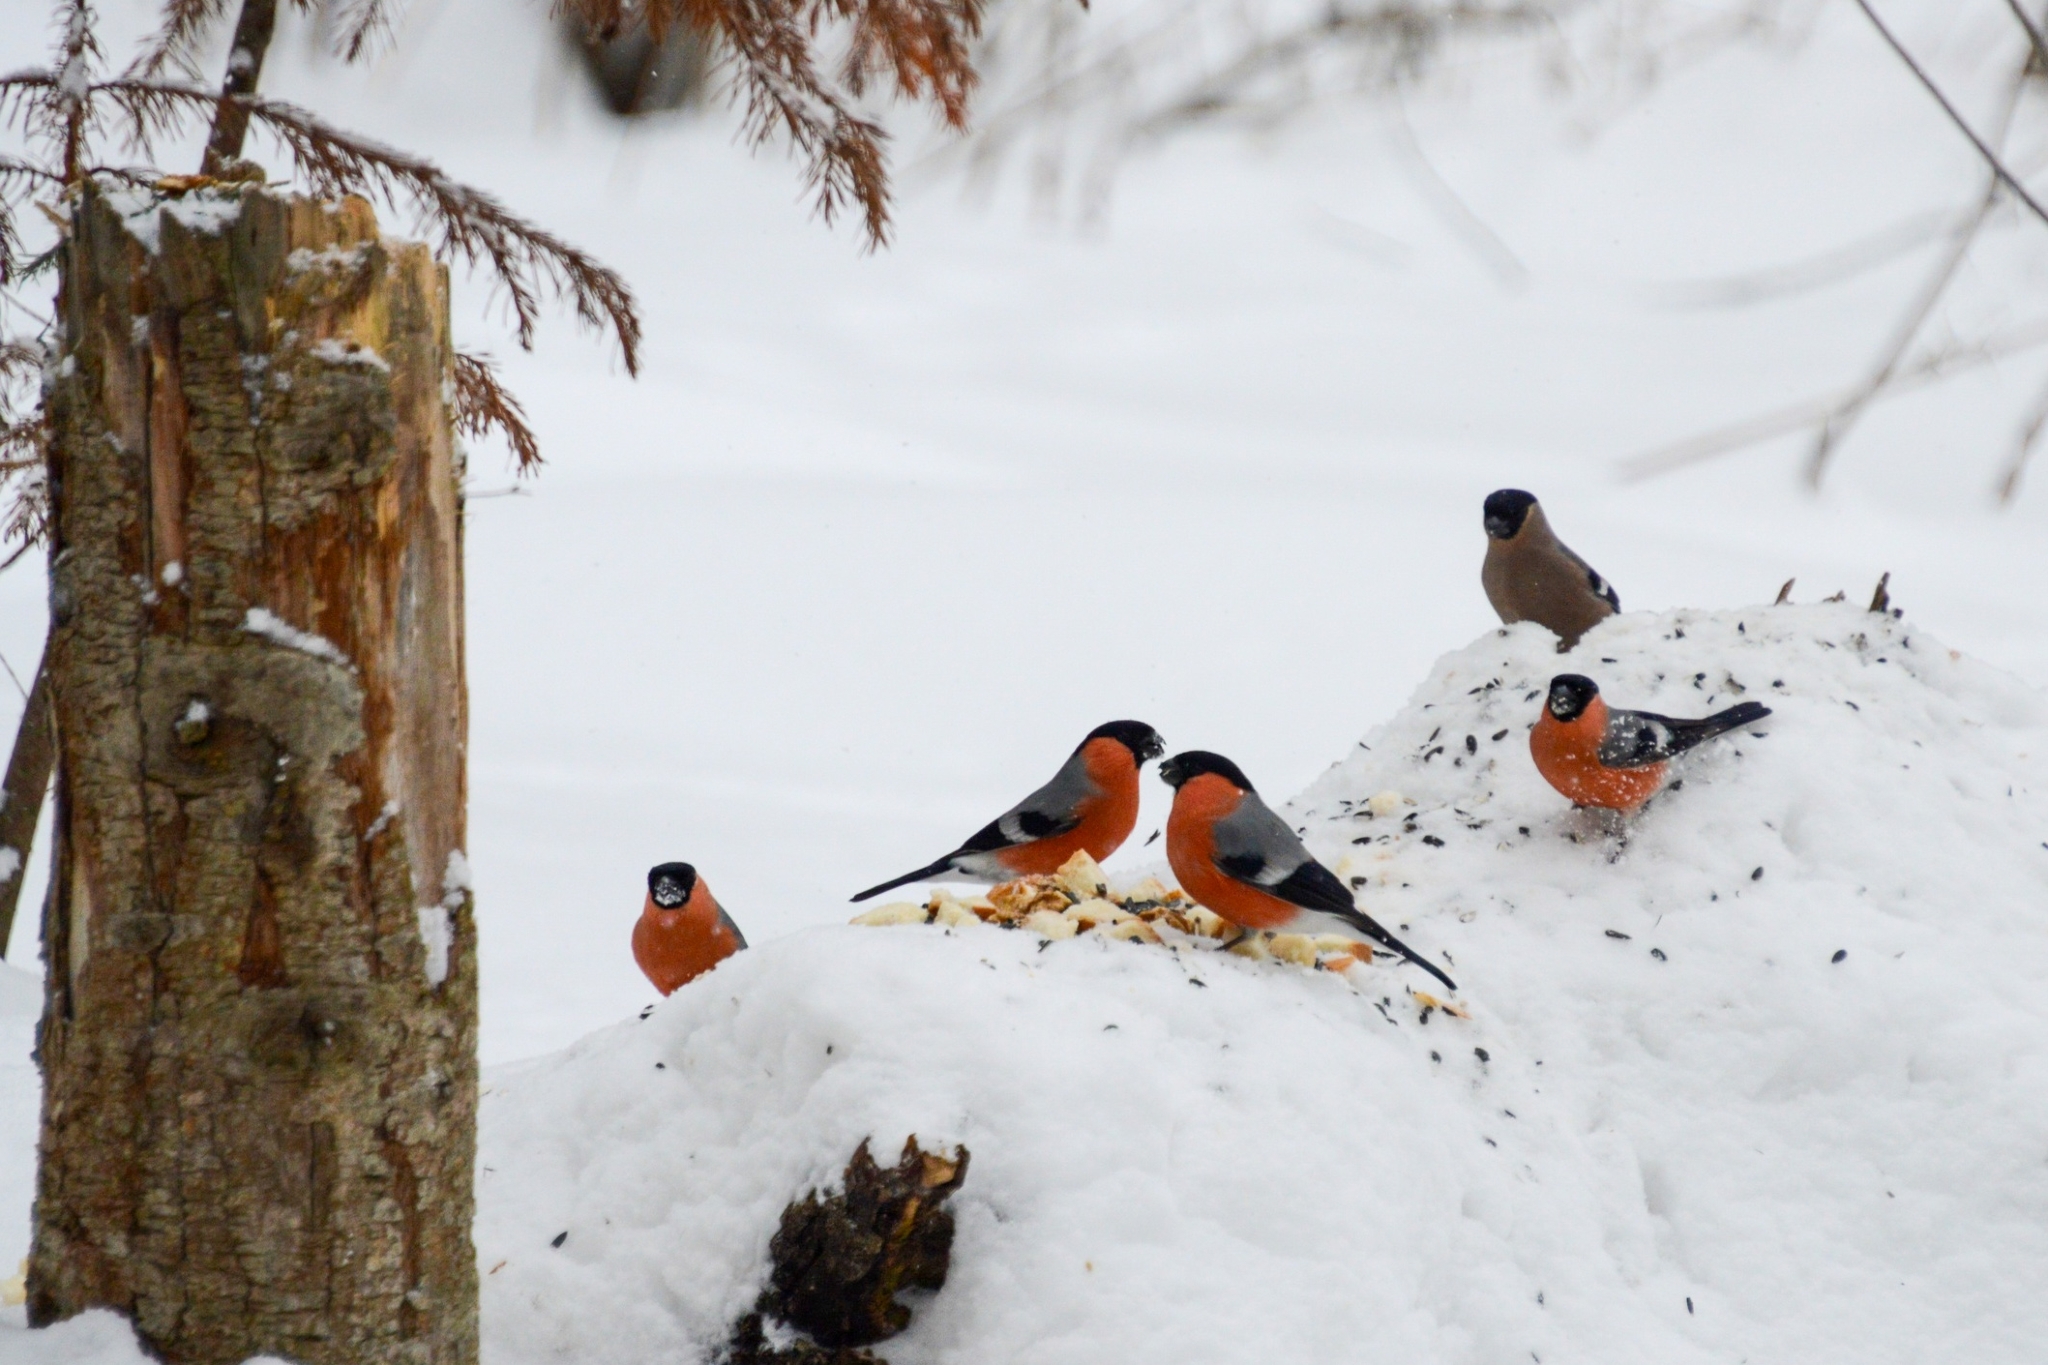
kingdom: Animalia
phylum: Chordata
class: Aves
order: Passeriformes
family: Fringillidae
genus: Pyrrhula
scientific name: Pyrrhula pyrrhula
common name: Eurasian bullfinch
